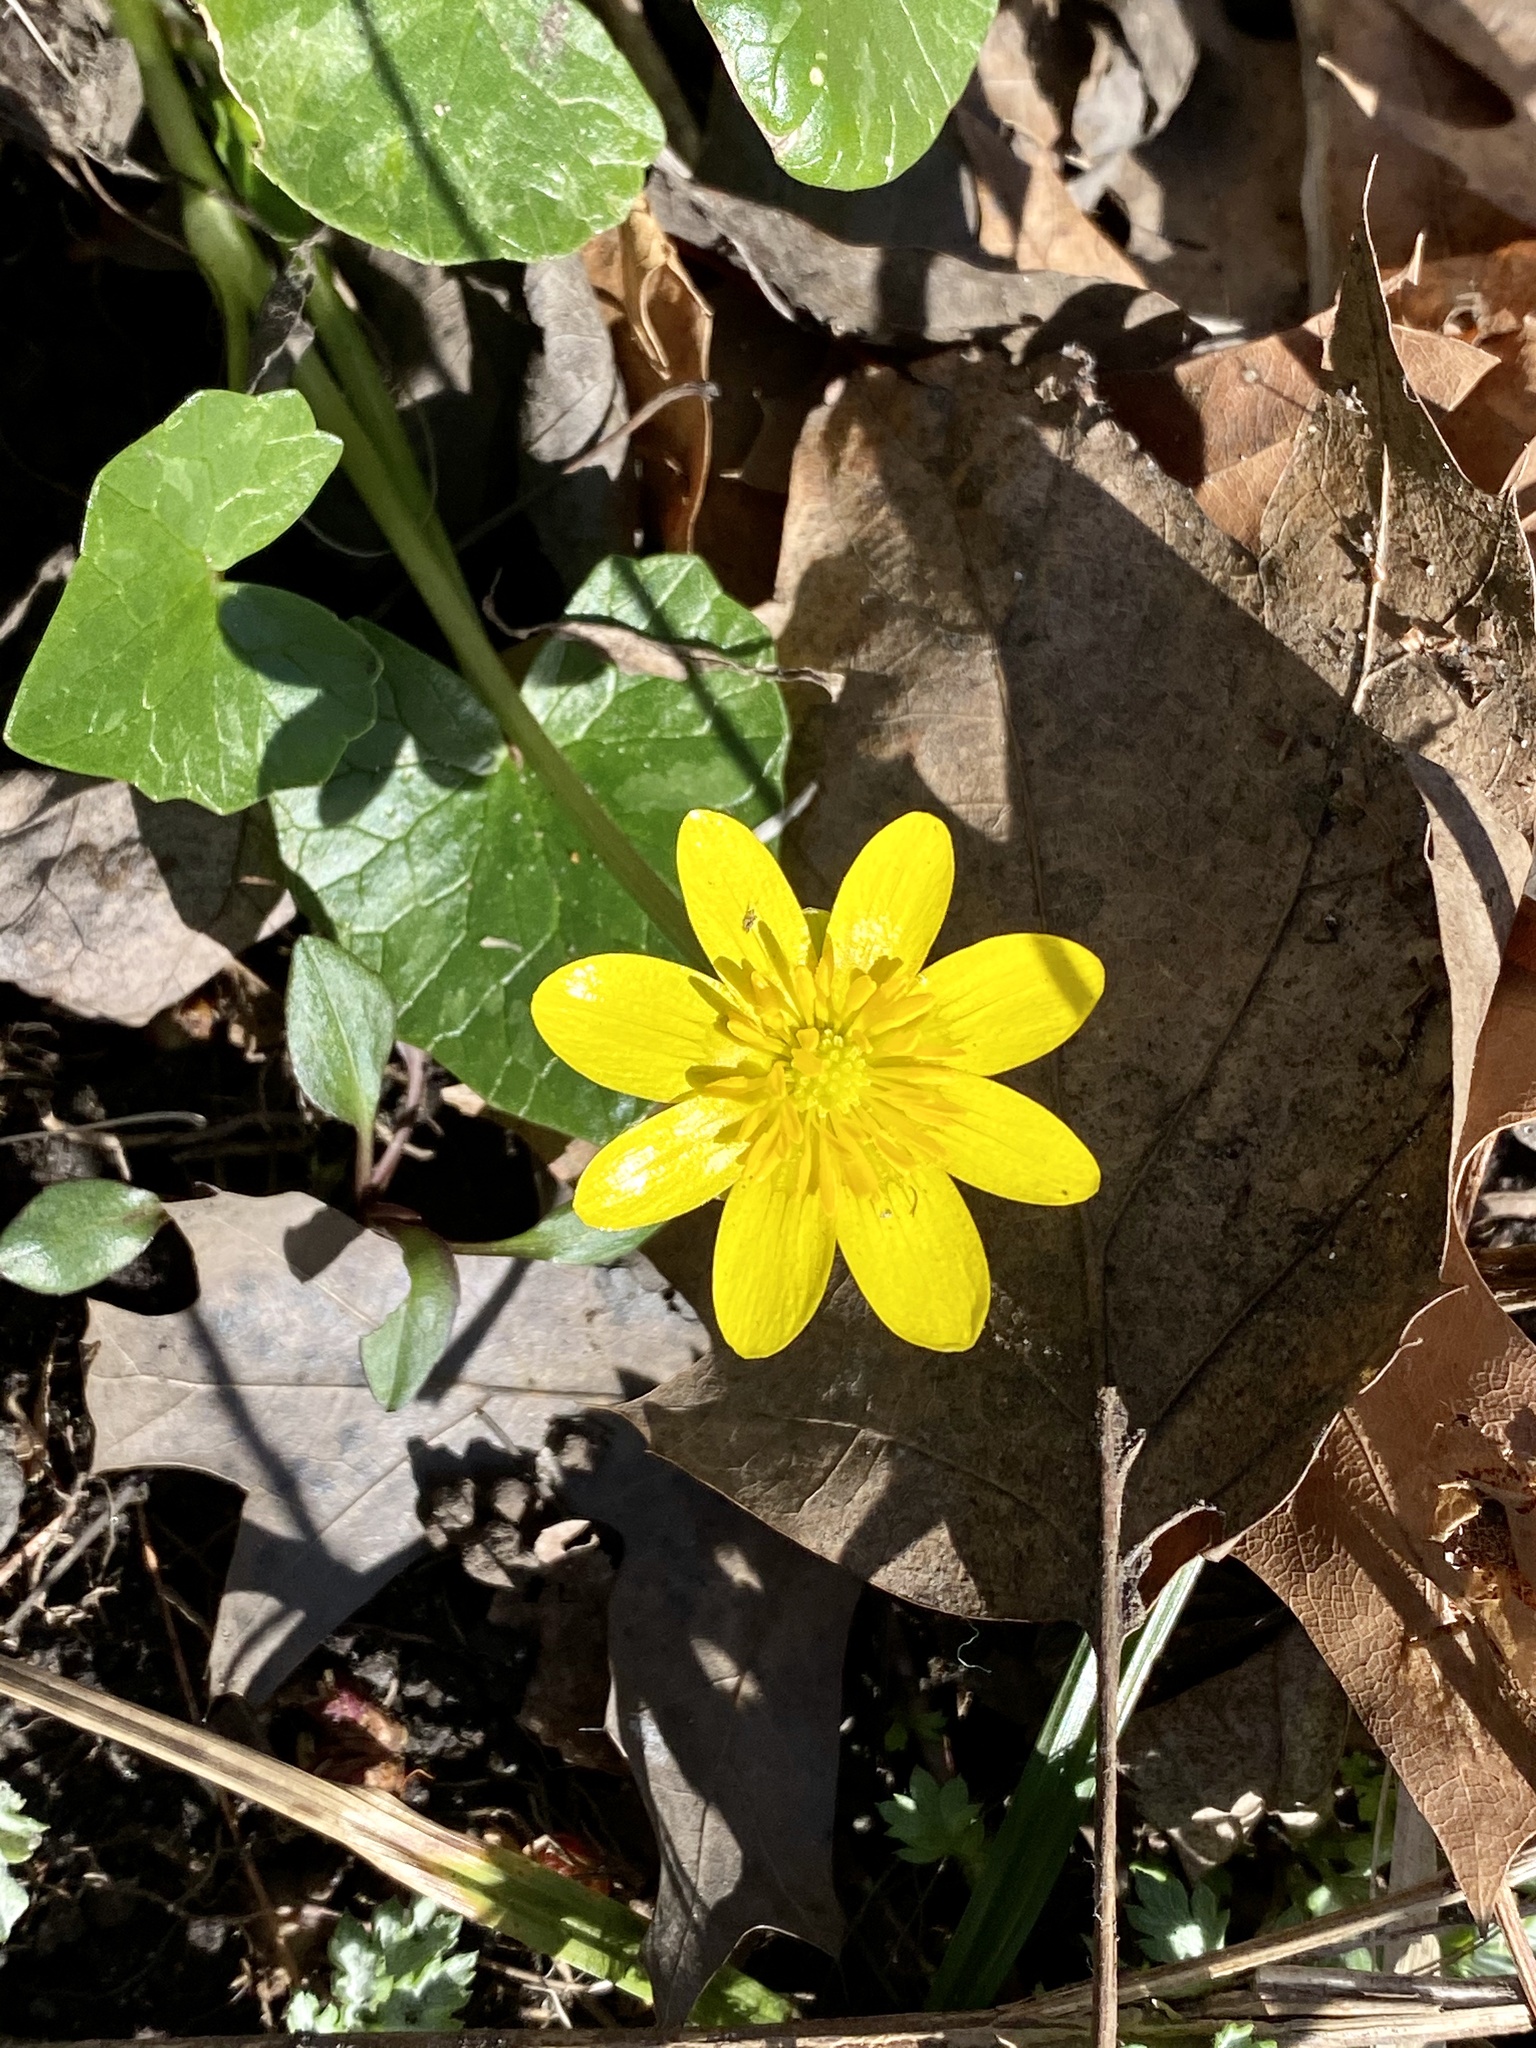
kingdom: Plantae
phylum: Tracheophyta
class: Magnoliopsida
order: Ranunculales
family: Ranunculaceae
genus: Ficaria
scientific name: Ficaria verna
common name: Lesser celandine
